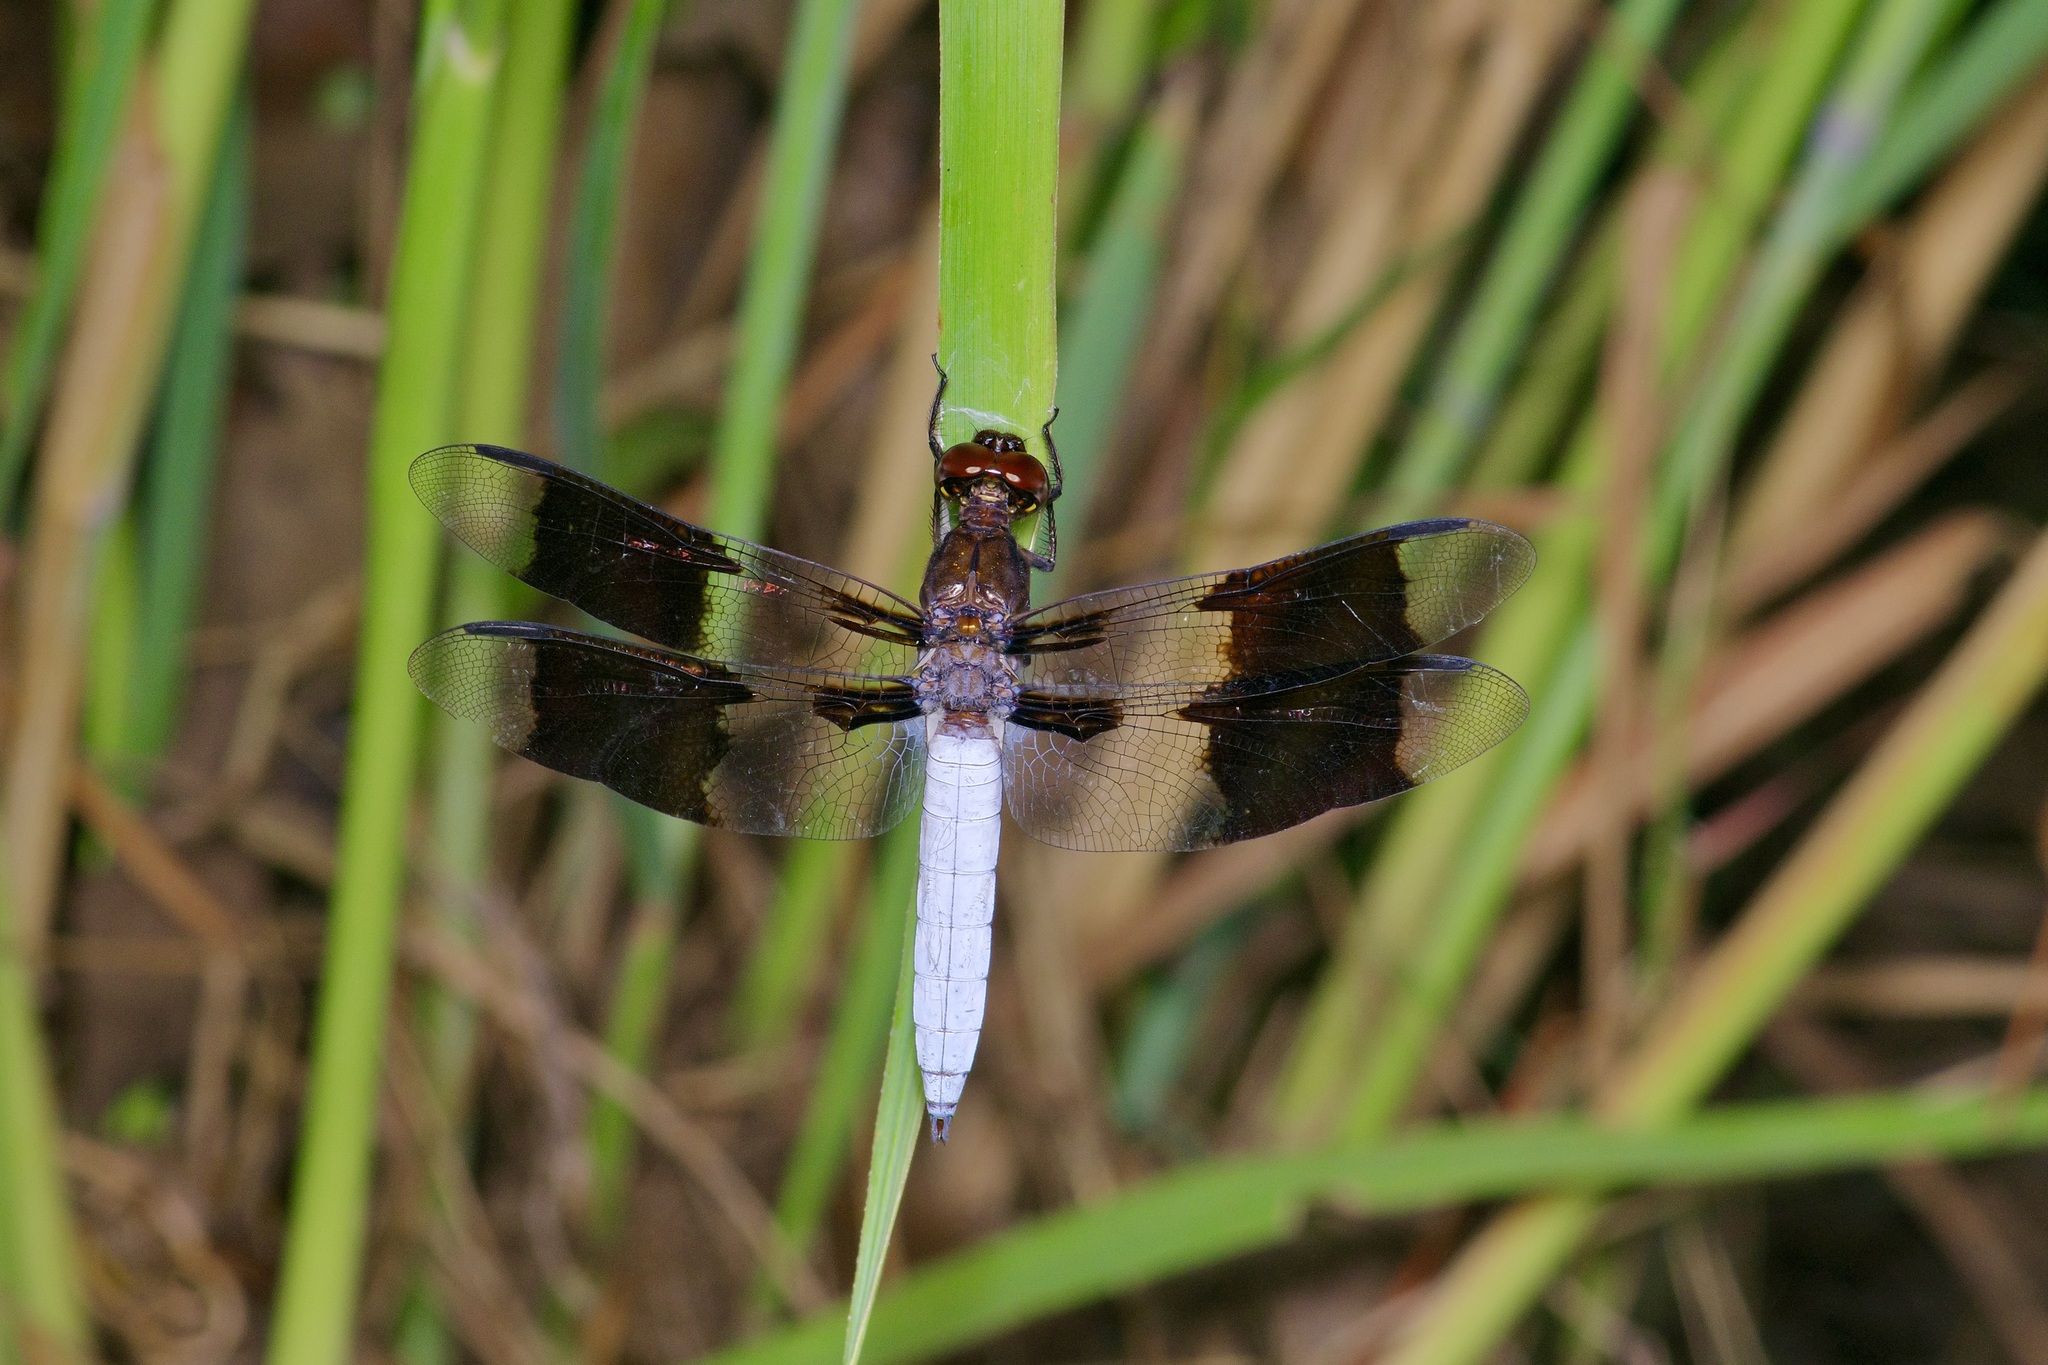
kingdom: Animalia
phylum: Arthropoda
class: Insecta
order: Odonata
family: Libellulidae
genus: Plathemis
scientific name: Plathemis lydia
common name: Common whitetail
